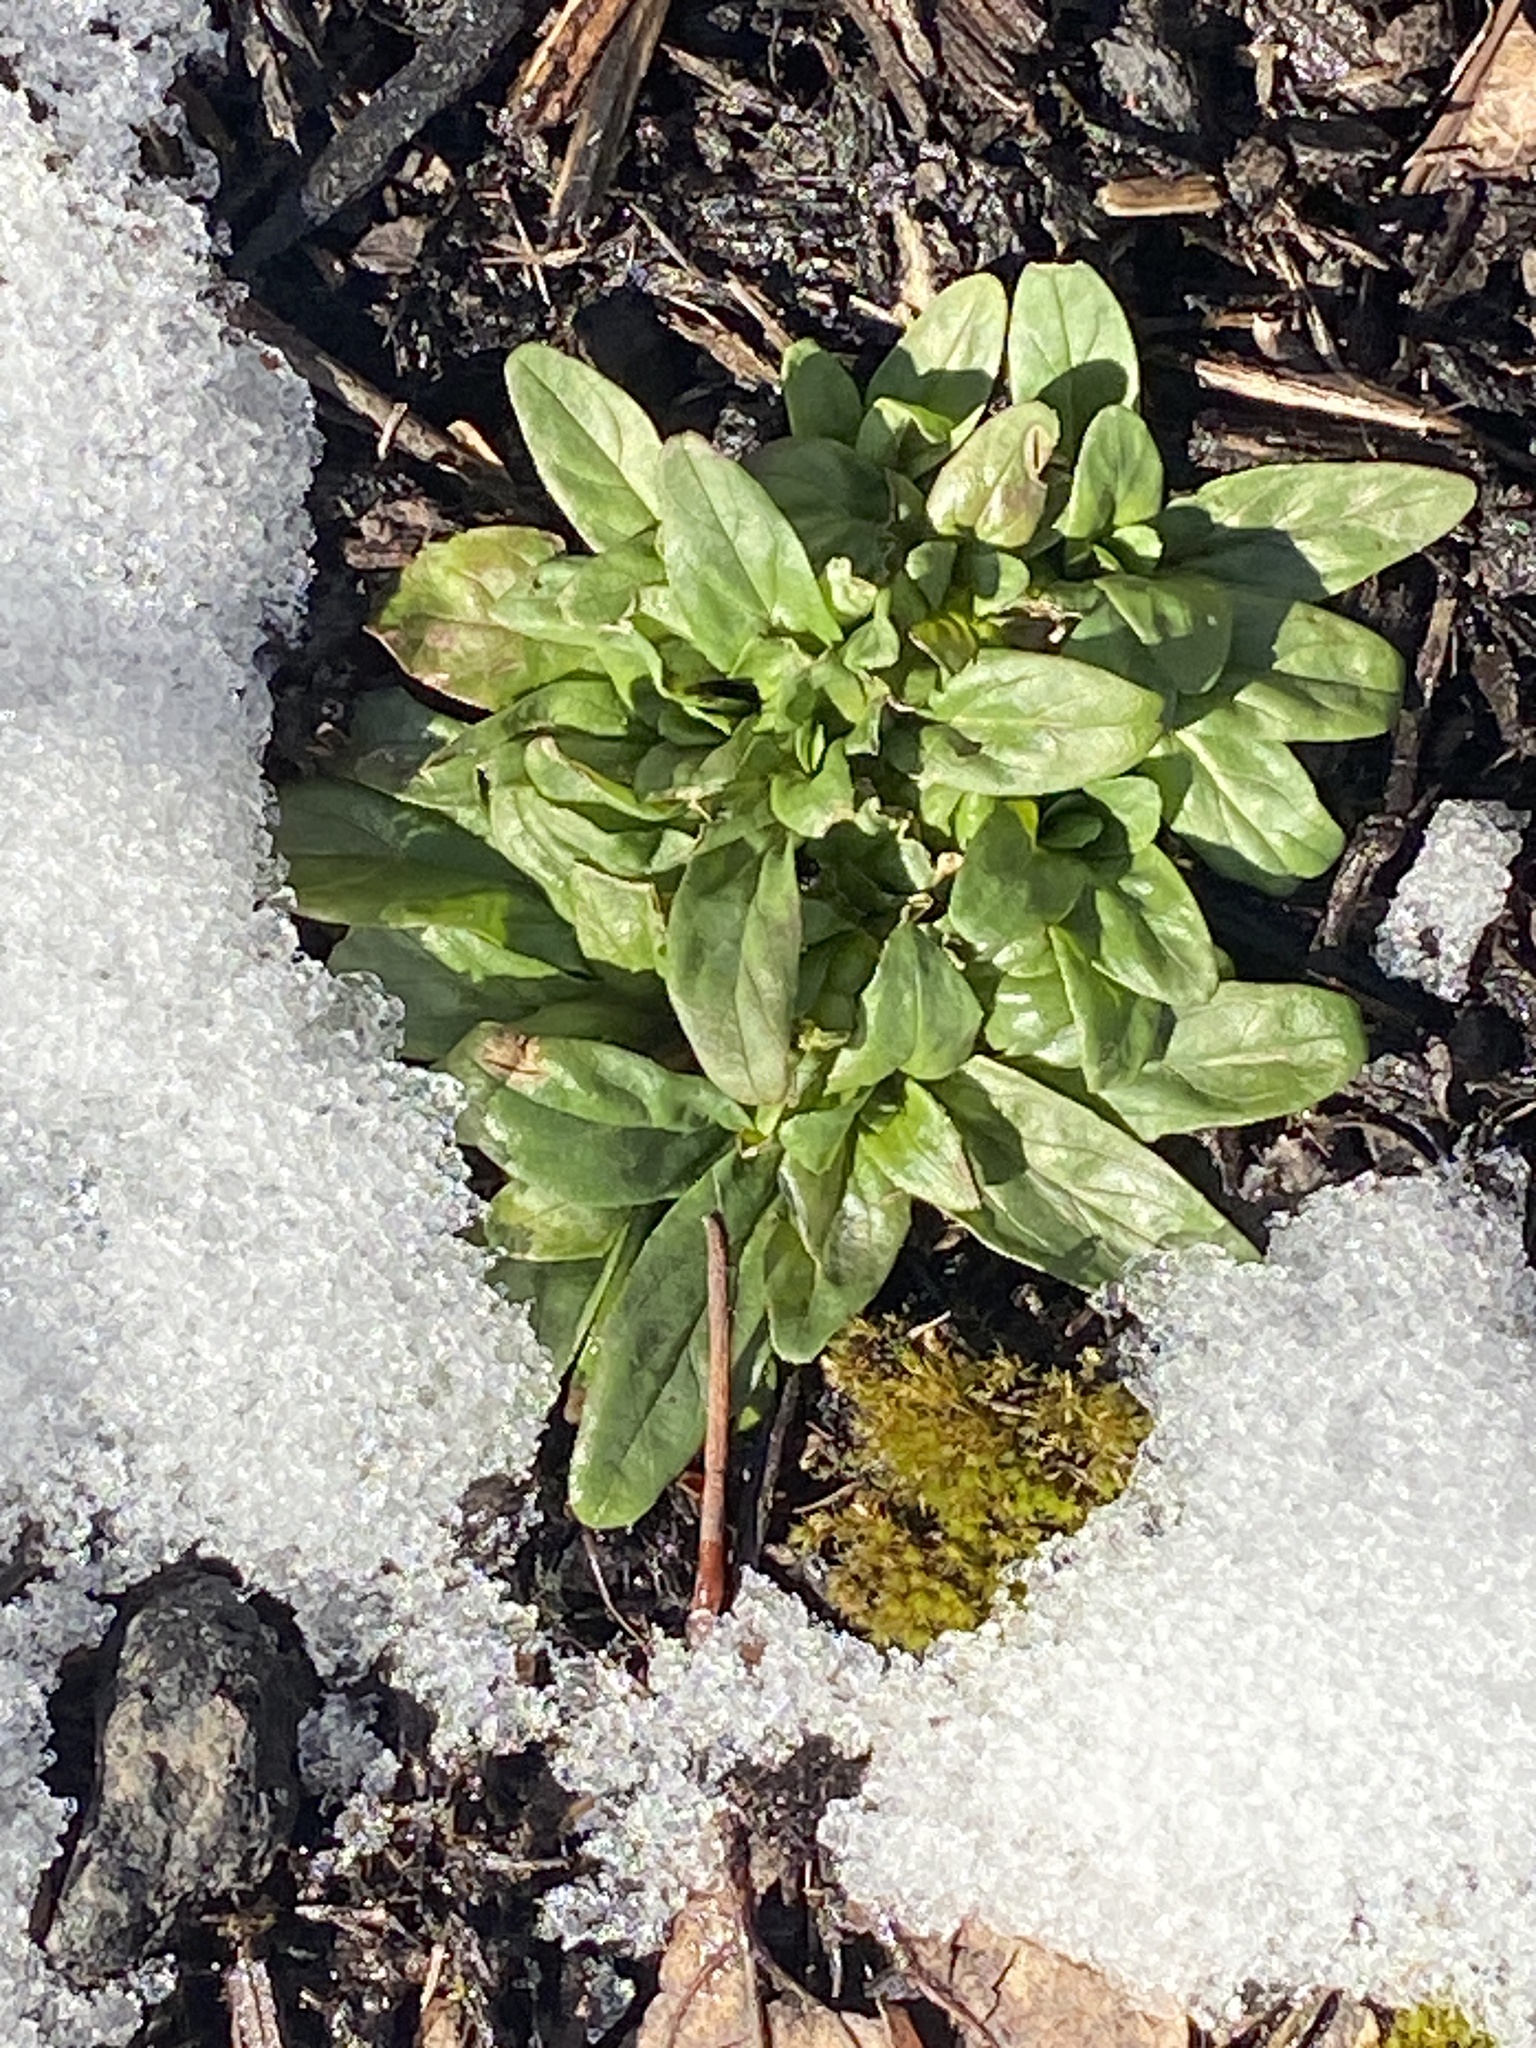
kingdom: Plantae
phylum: Tracheophyta
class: Magnoliopsida
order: Lamiales
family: Lamiaceae
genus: Prunella
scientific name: Prunella vulgaris
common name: Heal-all
